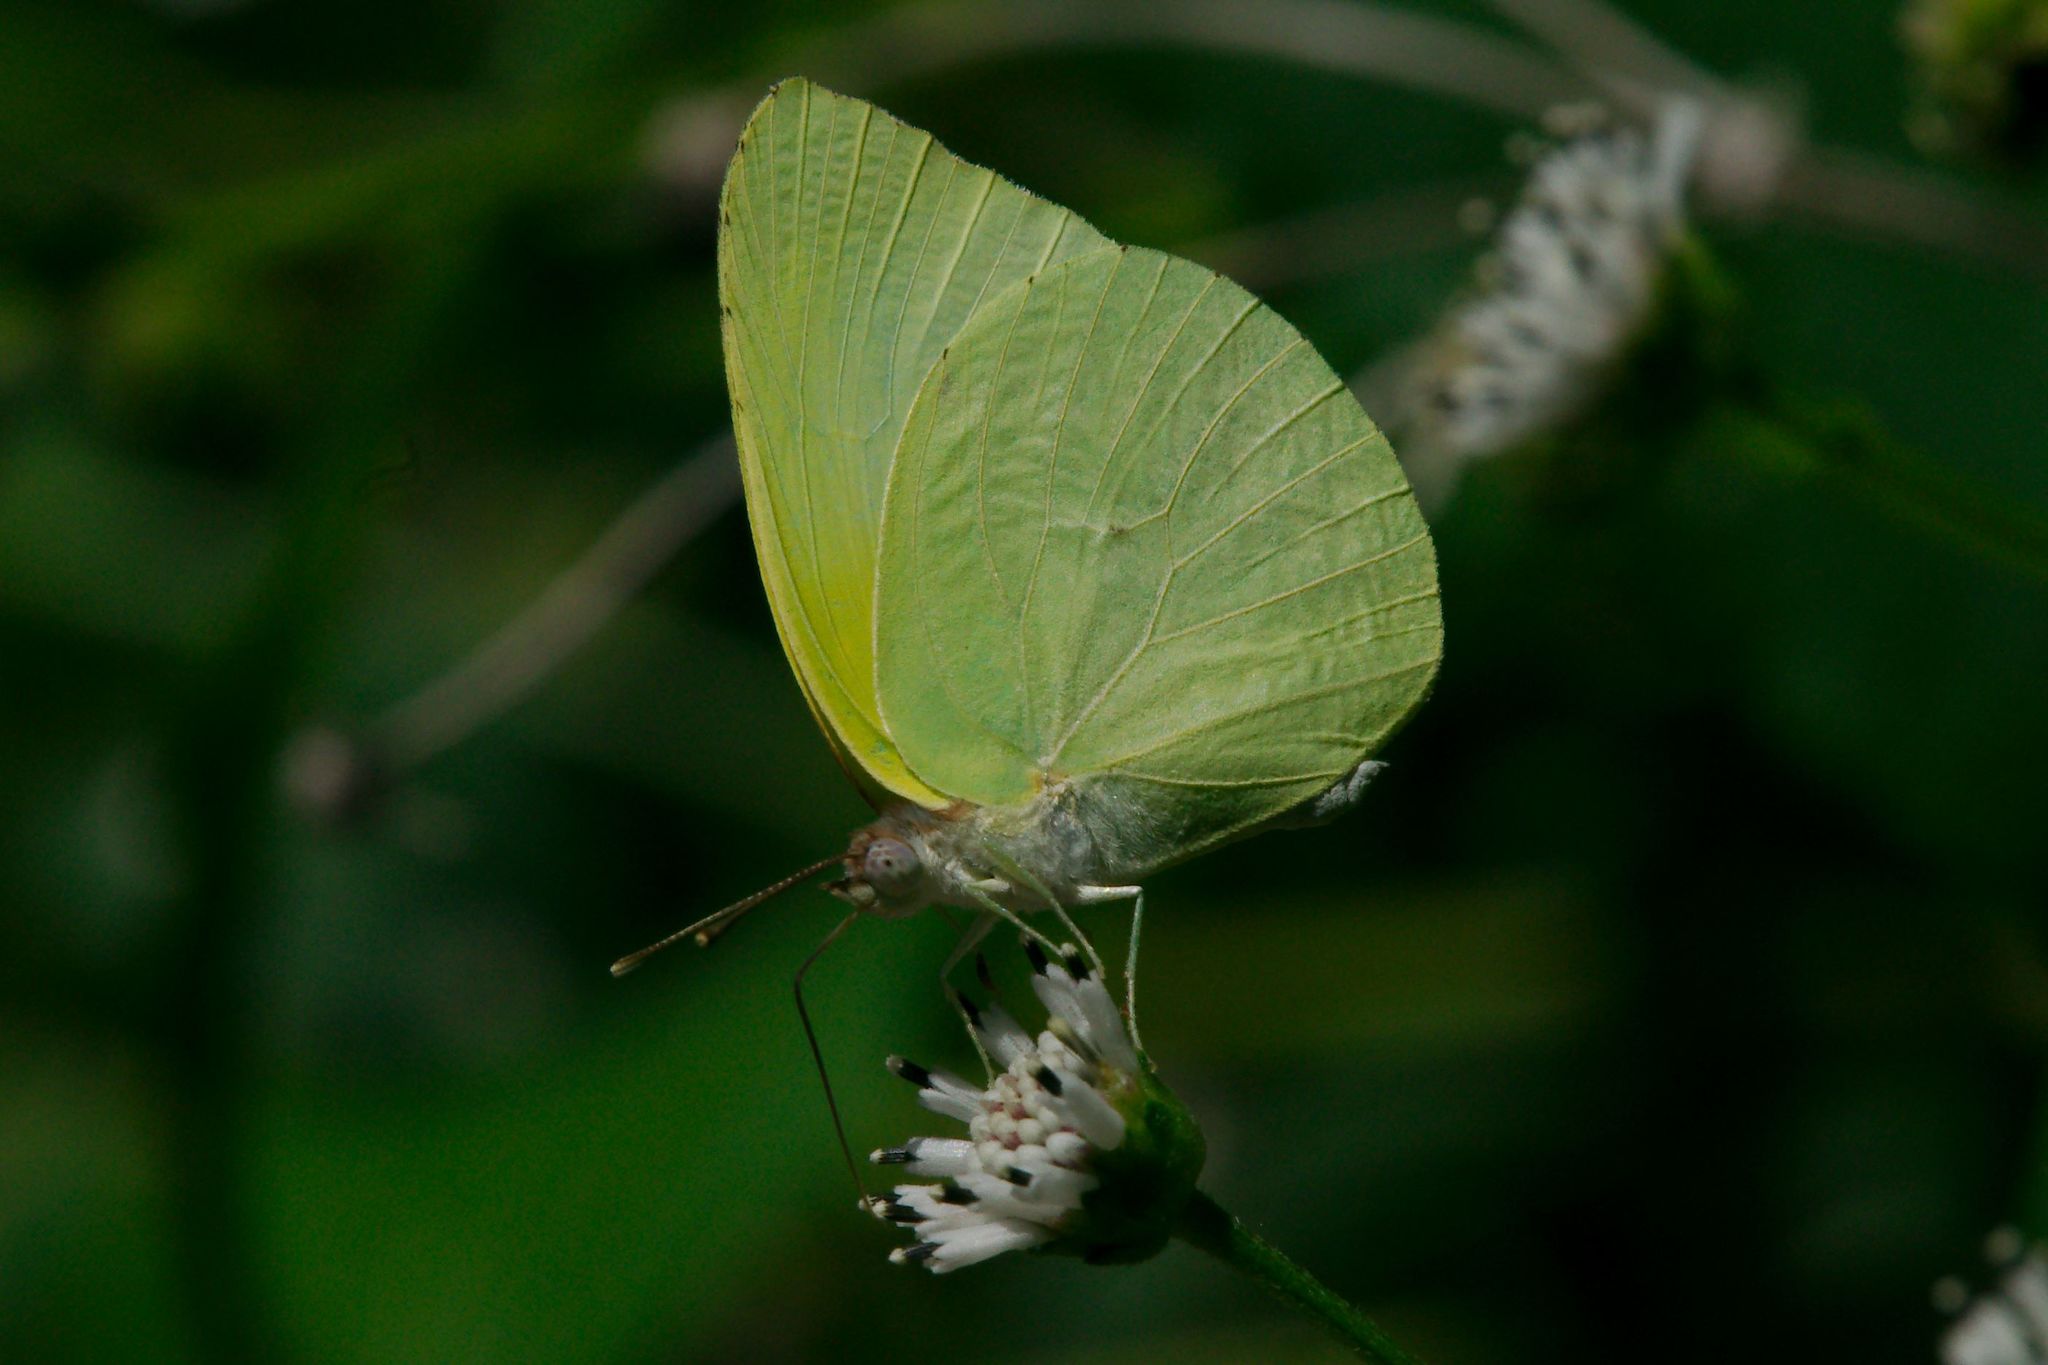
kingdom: Animalia
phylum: Arthropoda
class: Insecta
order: Lepidoptera
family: Pieridae
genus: Kricogonia
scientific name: Kricogonia lyside
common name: Guayacan sulphur,
